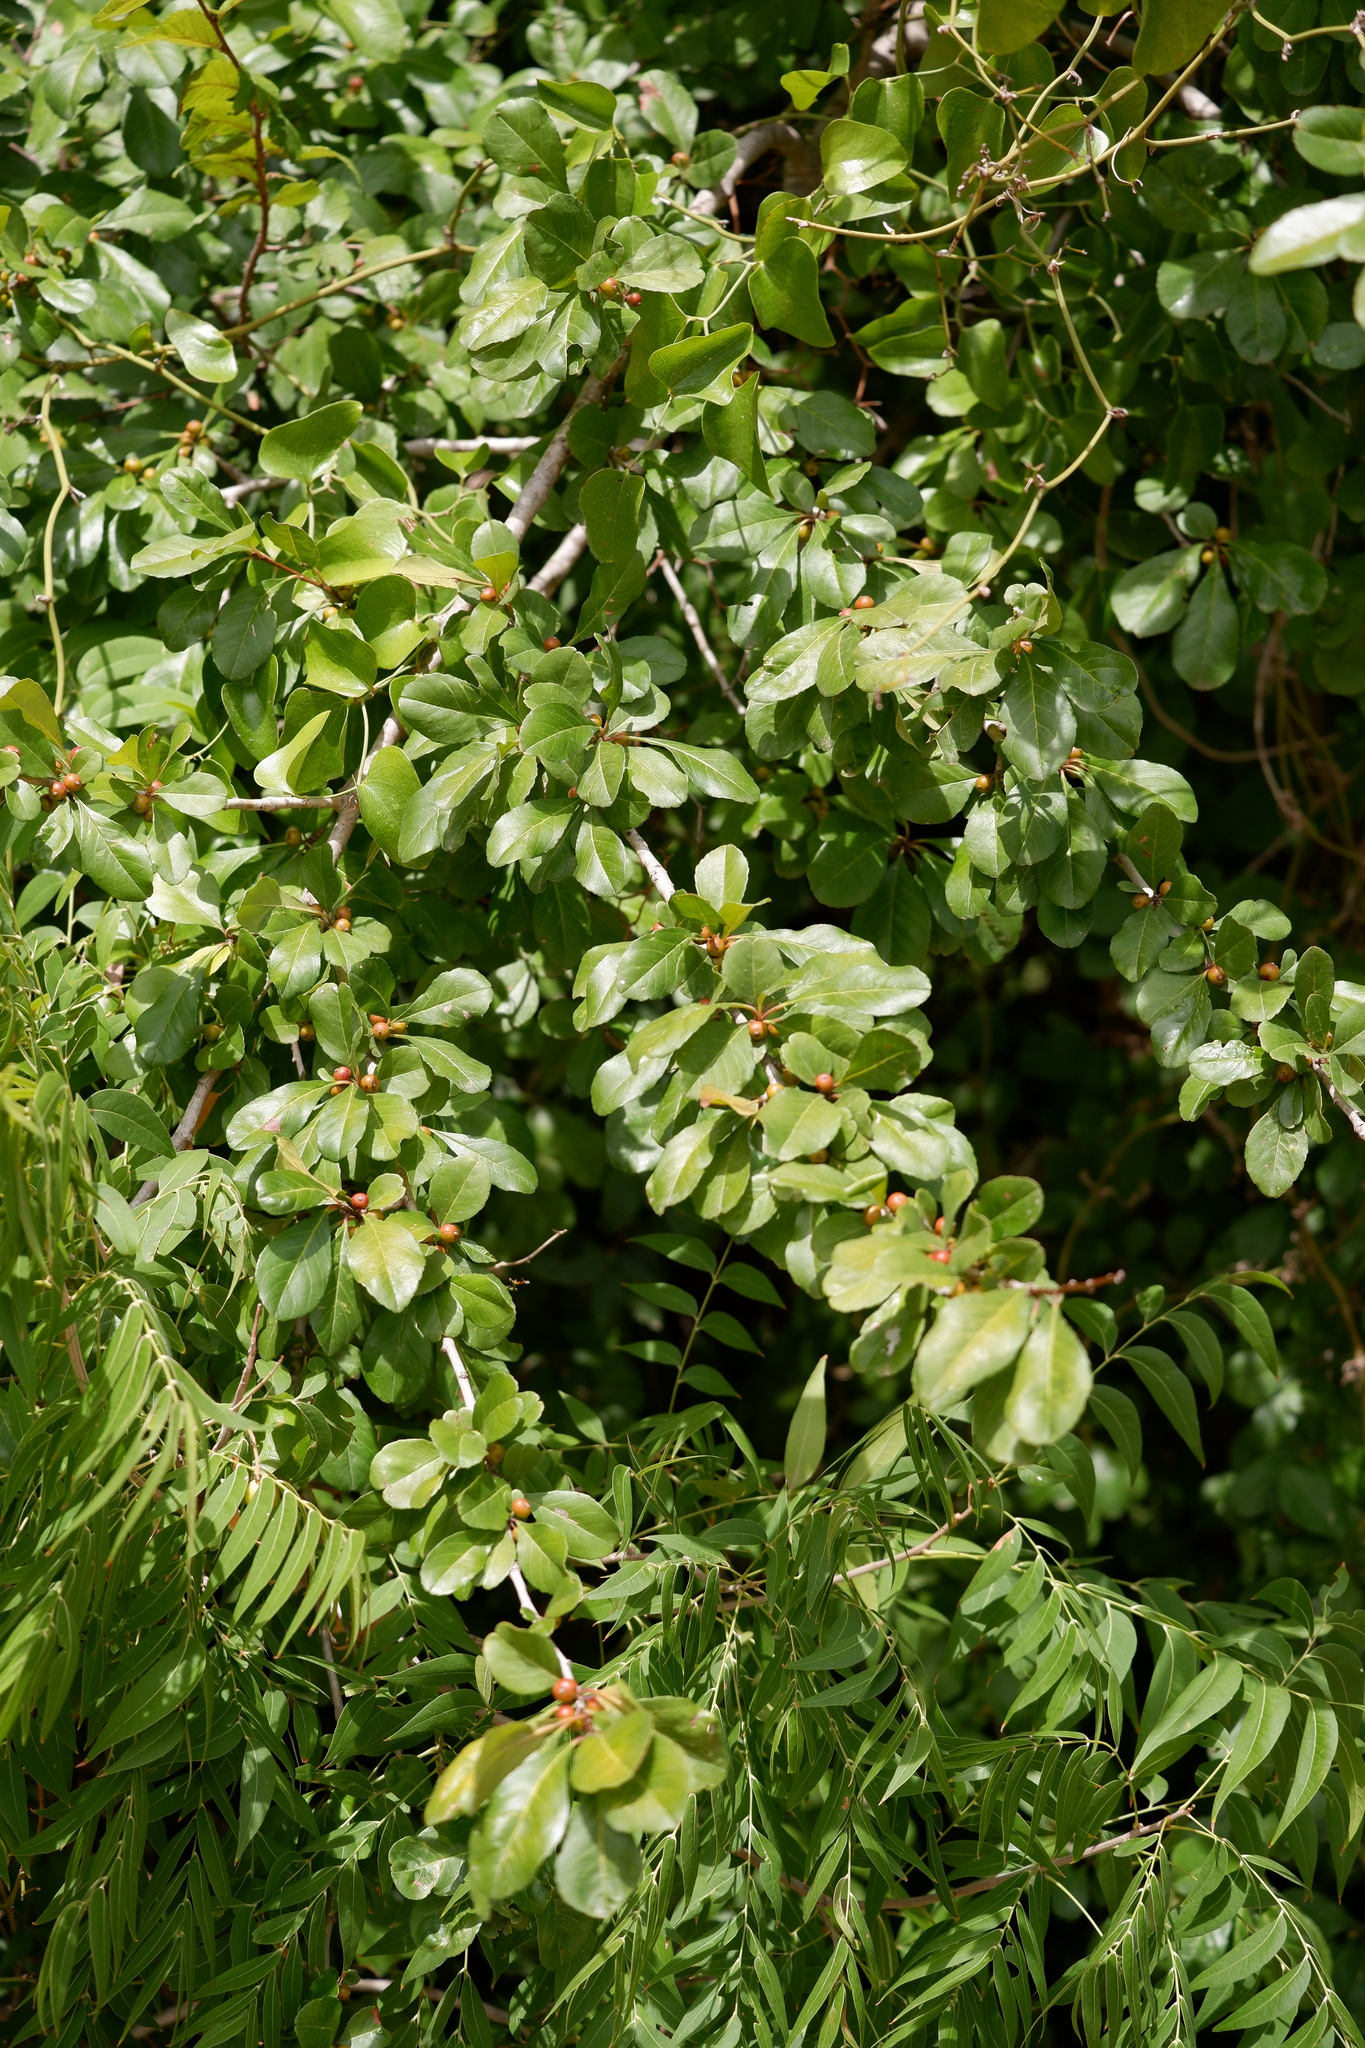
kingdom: Plantae
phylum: Tracheophyta
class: Magnoliopsida
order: Aquifoliales
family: Aquifoliaceae
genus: Ilex
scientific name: Ilex decidua
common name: Possum-haw
